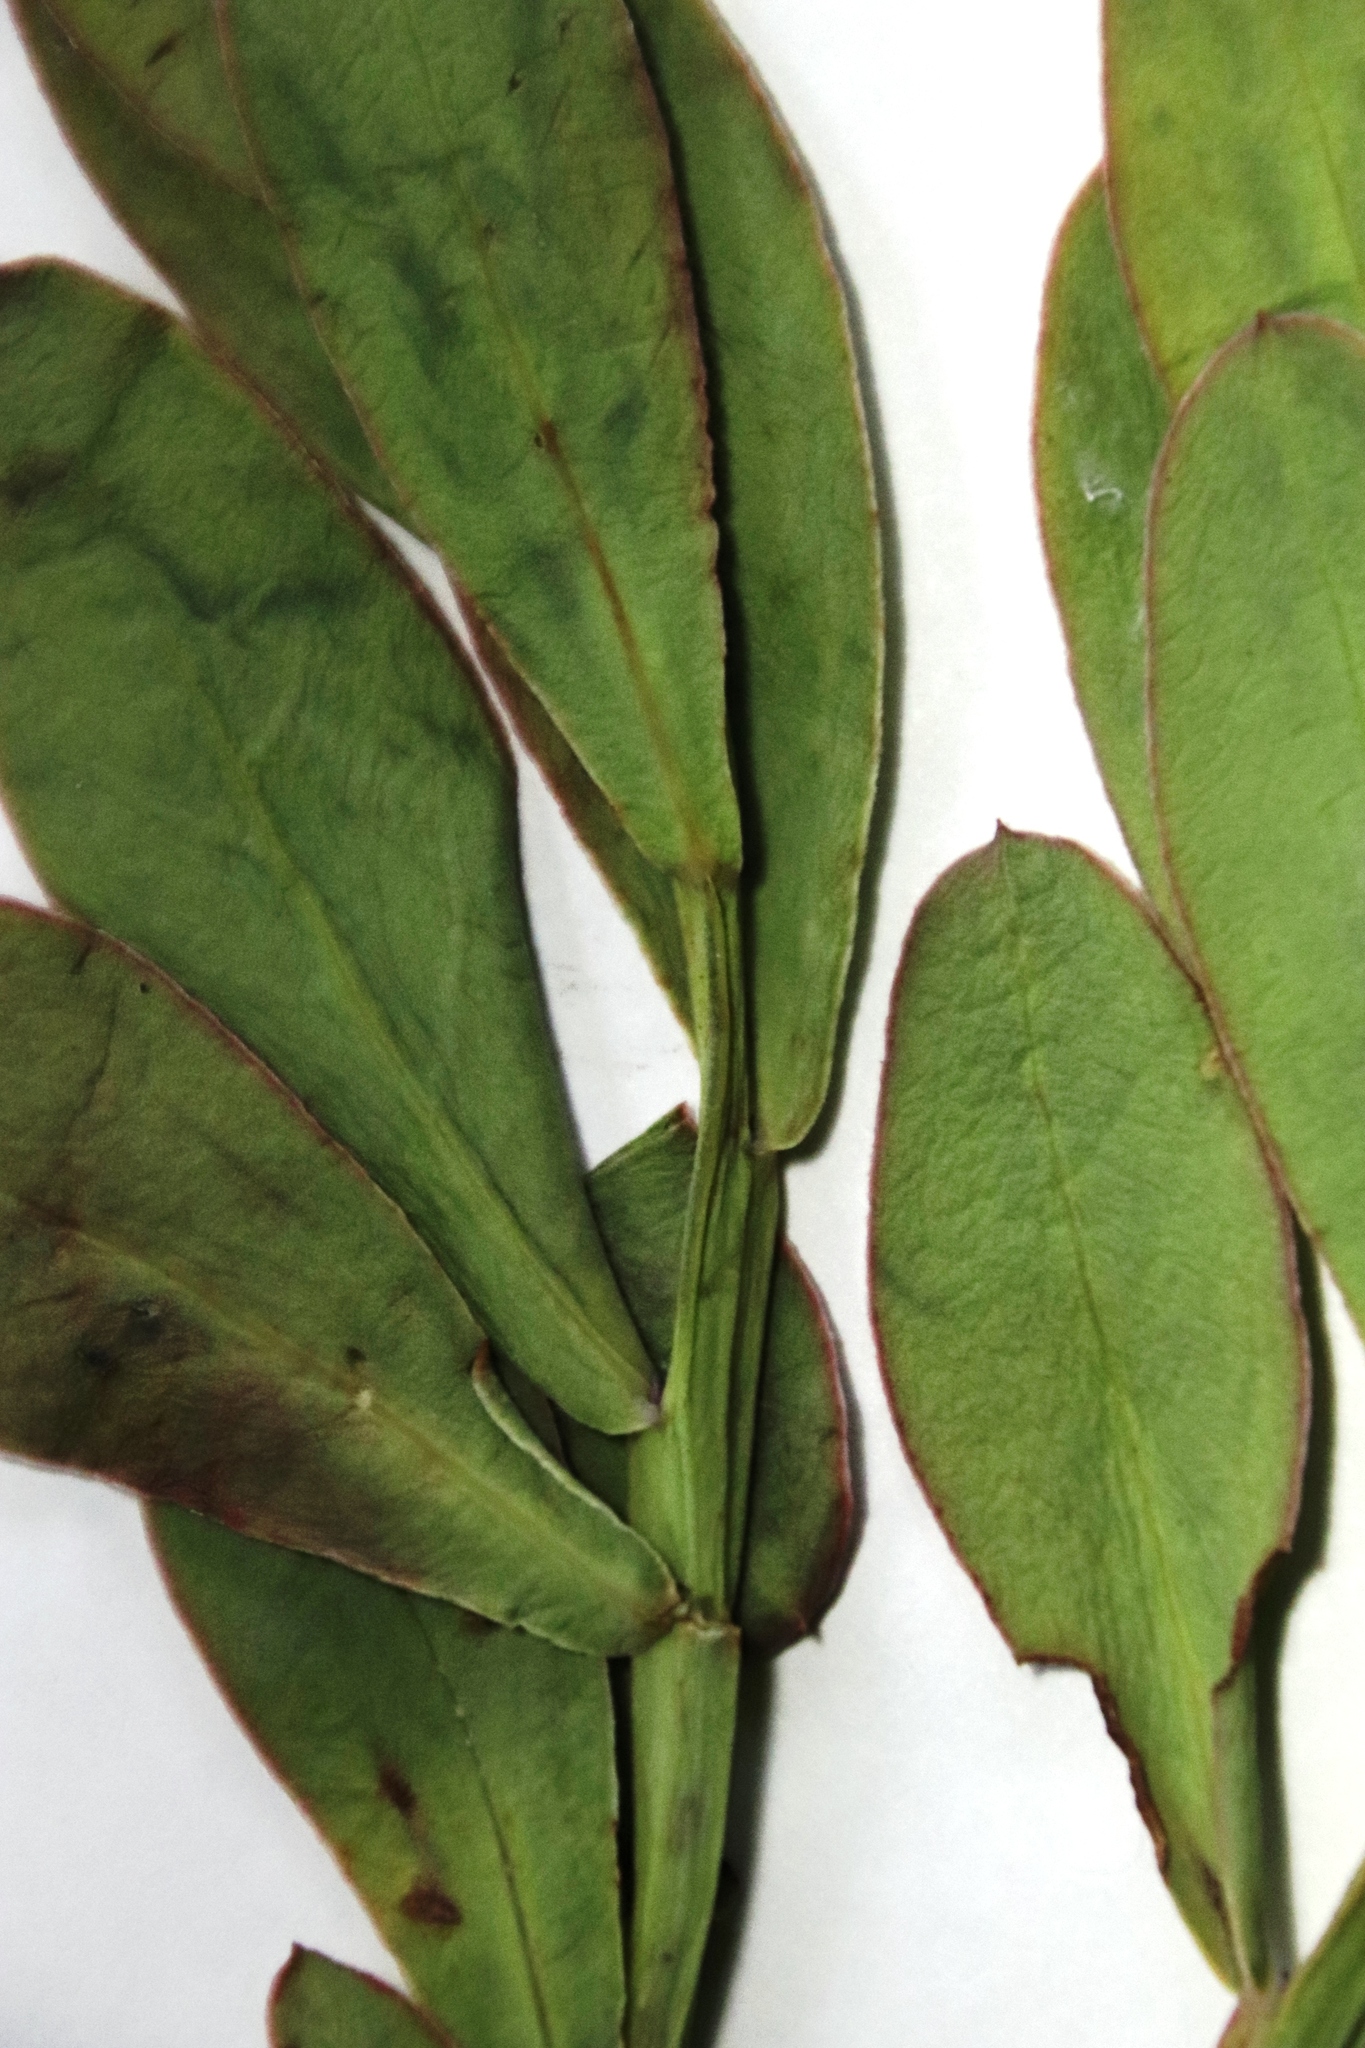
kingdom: Plantae
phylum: Tracheophyta
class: Magnoliopsida
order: Asterales
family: Asteraceae
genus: Othonna
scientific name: Othonna coronopifolia
